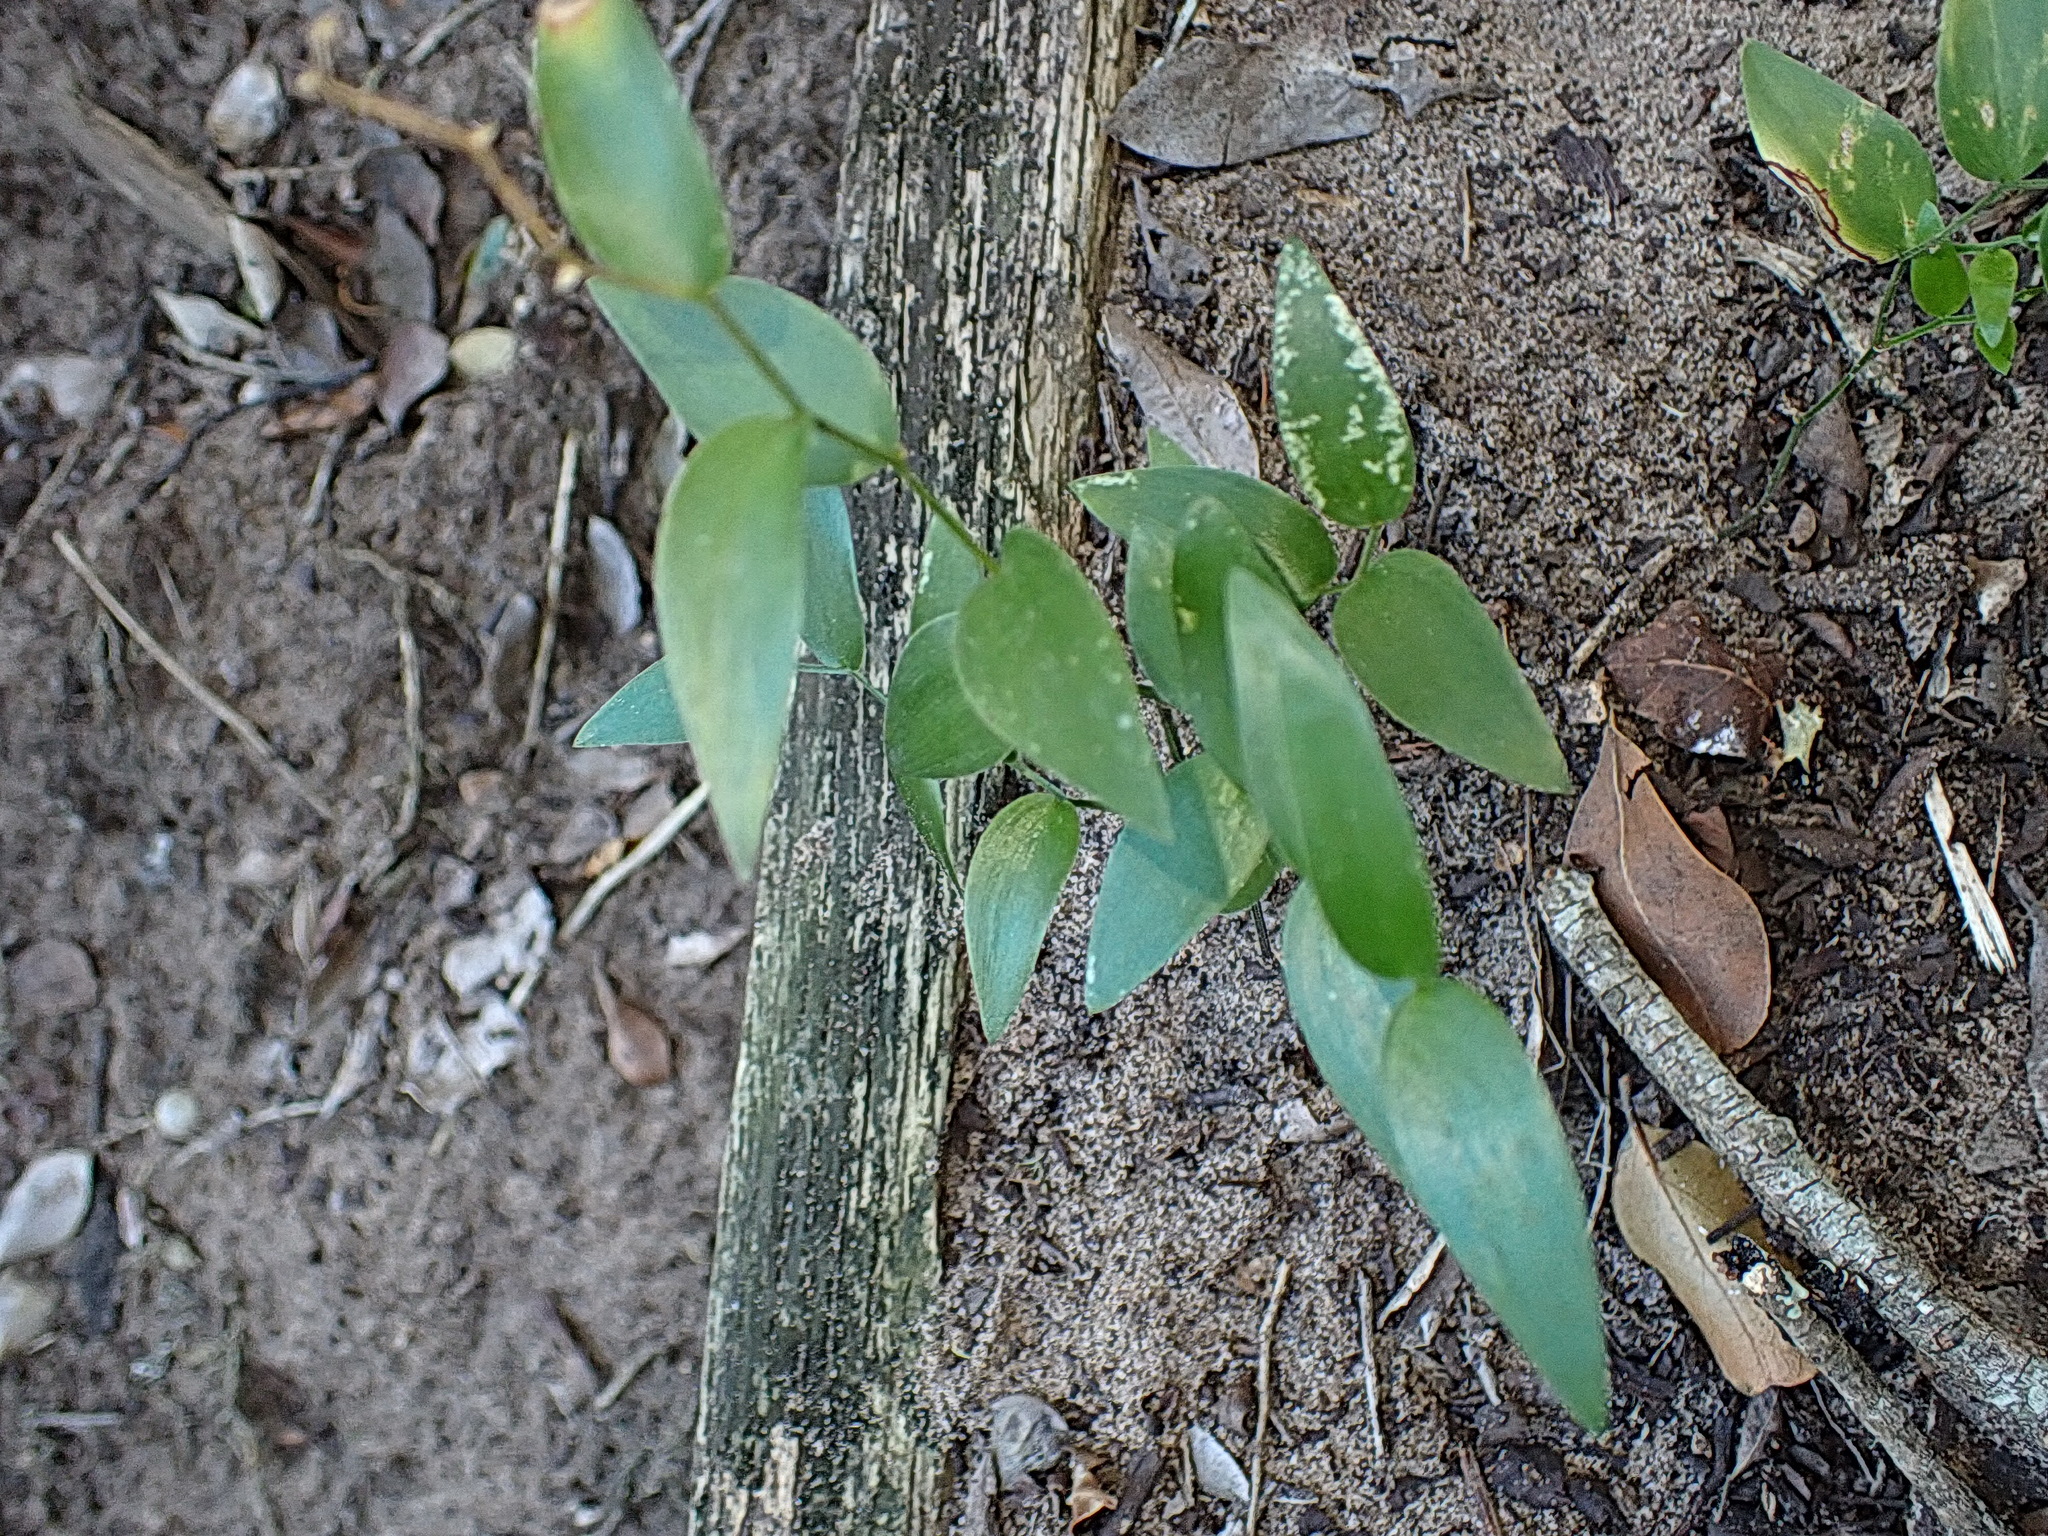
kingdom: Plantae
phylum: Tracheophyta
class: Liliopsida
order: Asparagales
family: Asparagaceae
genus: Asparagus
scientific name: Asparagus asparagoides
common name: African asparagus fern
